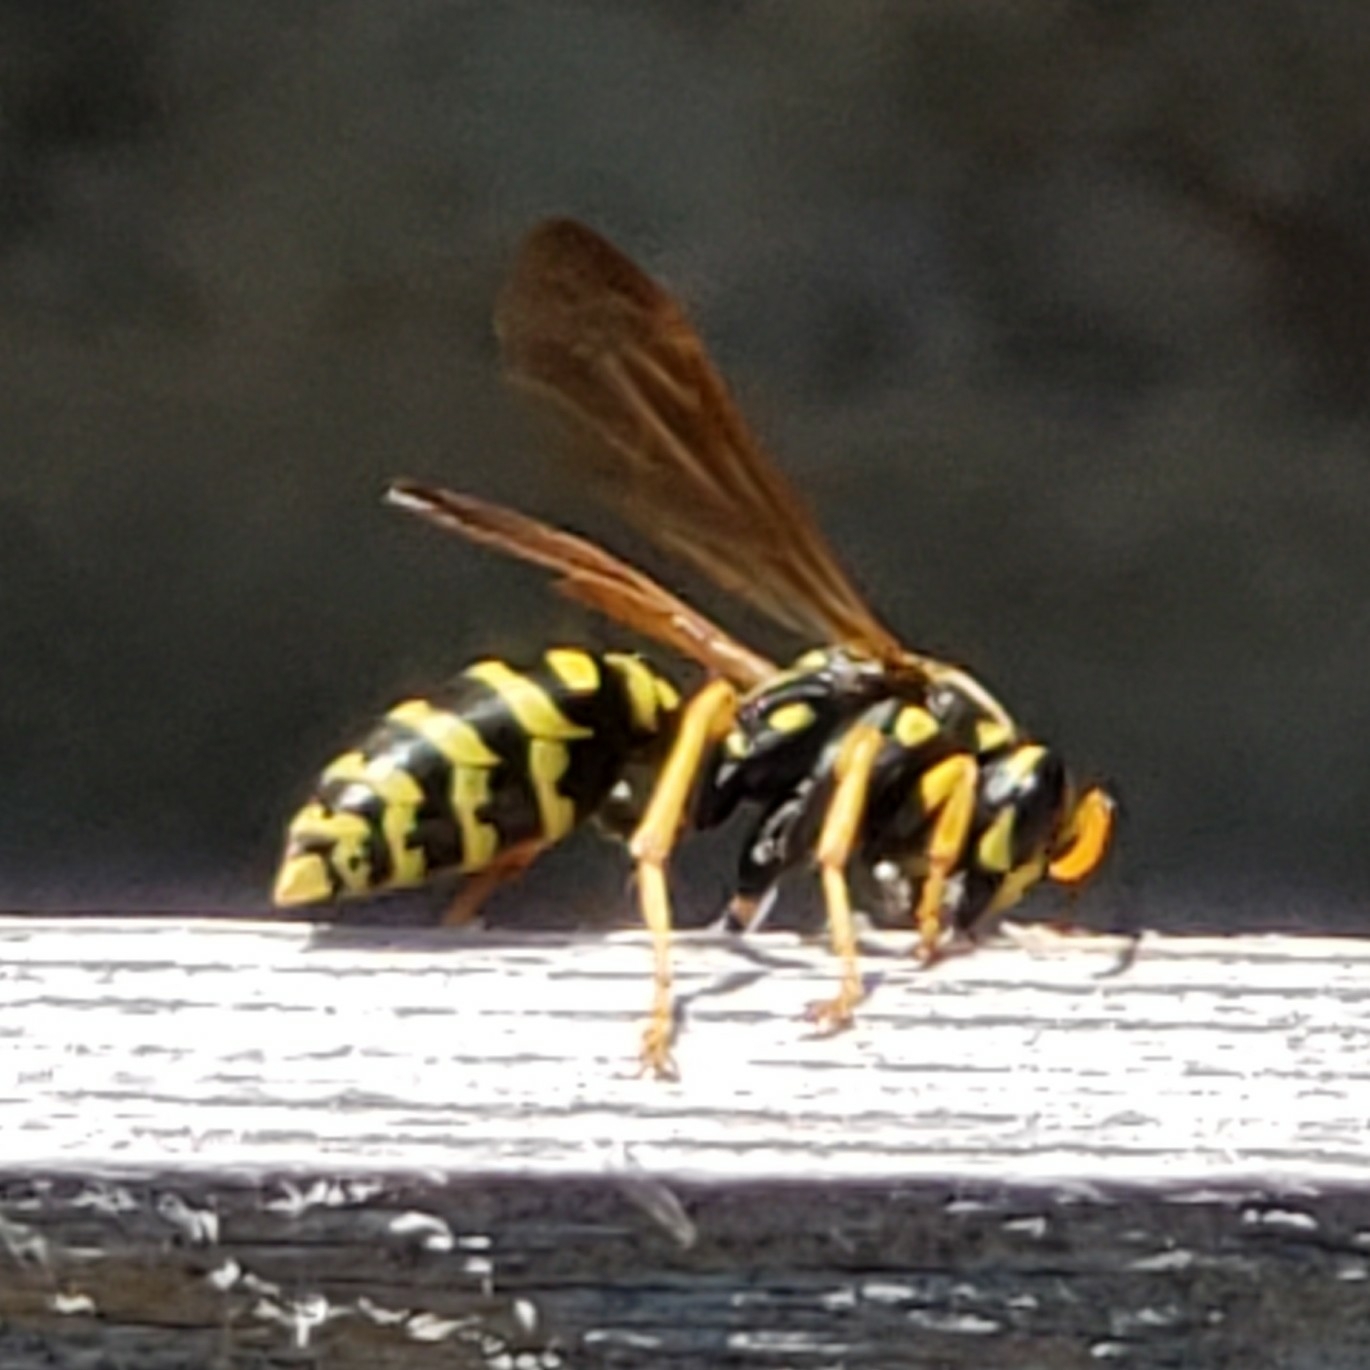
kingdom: Animalia
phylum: Arthropoda
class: Insecta
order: Hymenoptera
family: Eumenidae
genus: Polistes
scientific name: Polistes dominula
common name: Paper wasp
